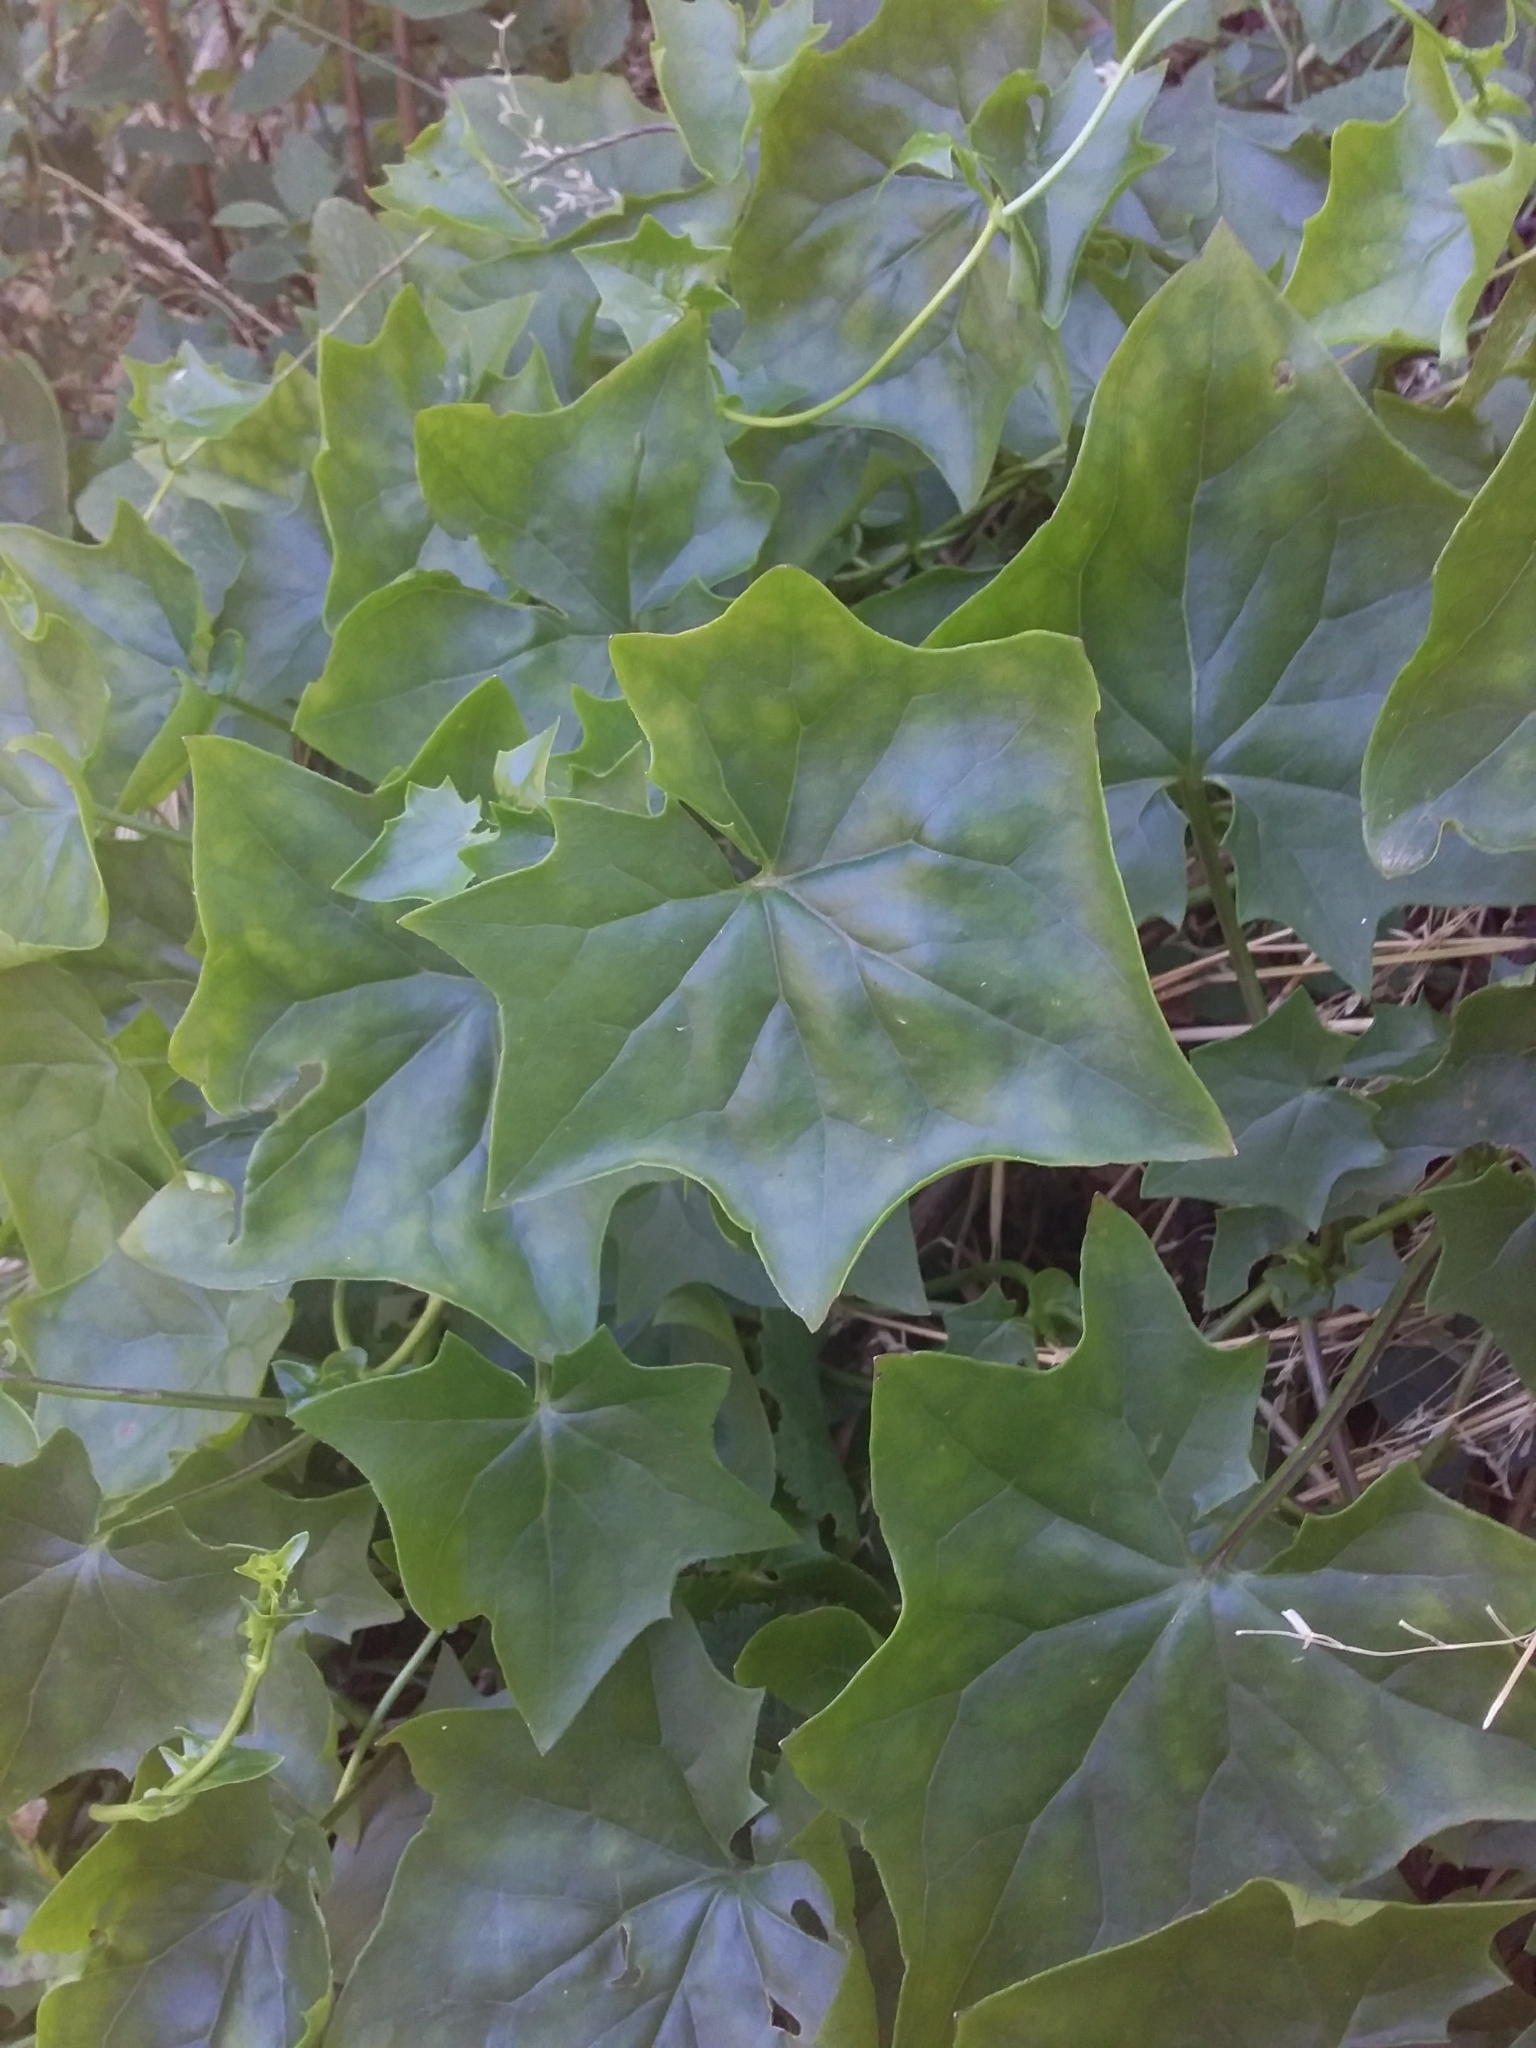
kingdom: Plantae
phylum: Tracheophyta
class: Magnoliopsida
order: Asterales
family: Asteraceae
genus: Delairea
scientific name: Delairea odorata
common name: Cape-ivy
